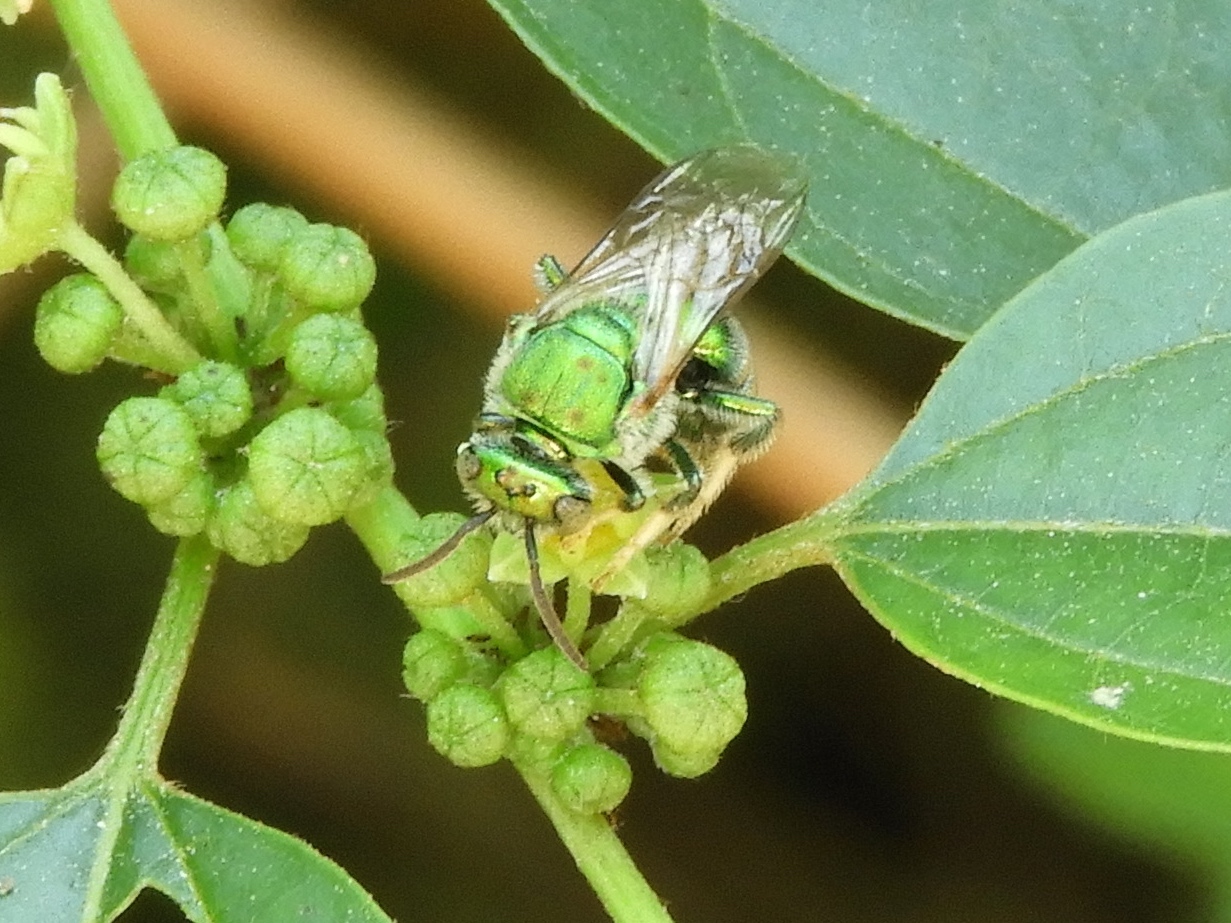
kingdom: Animalia
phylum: Arthropoda
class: Insecta
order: Hymenoptera
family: Halictidae
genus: Augochloropsis
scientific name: Augochloropsis
